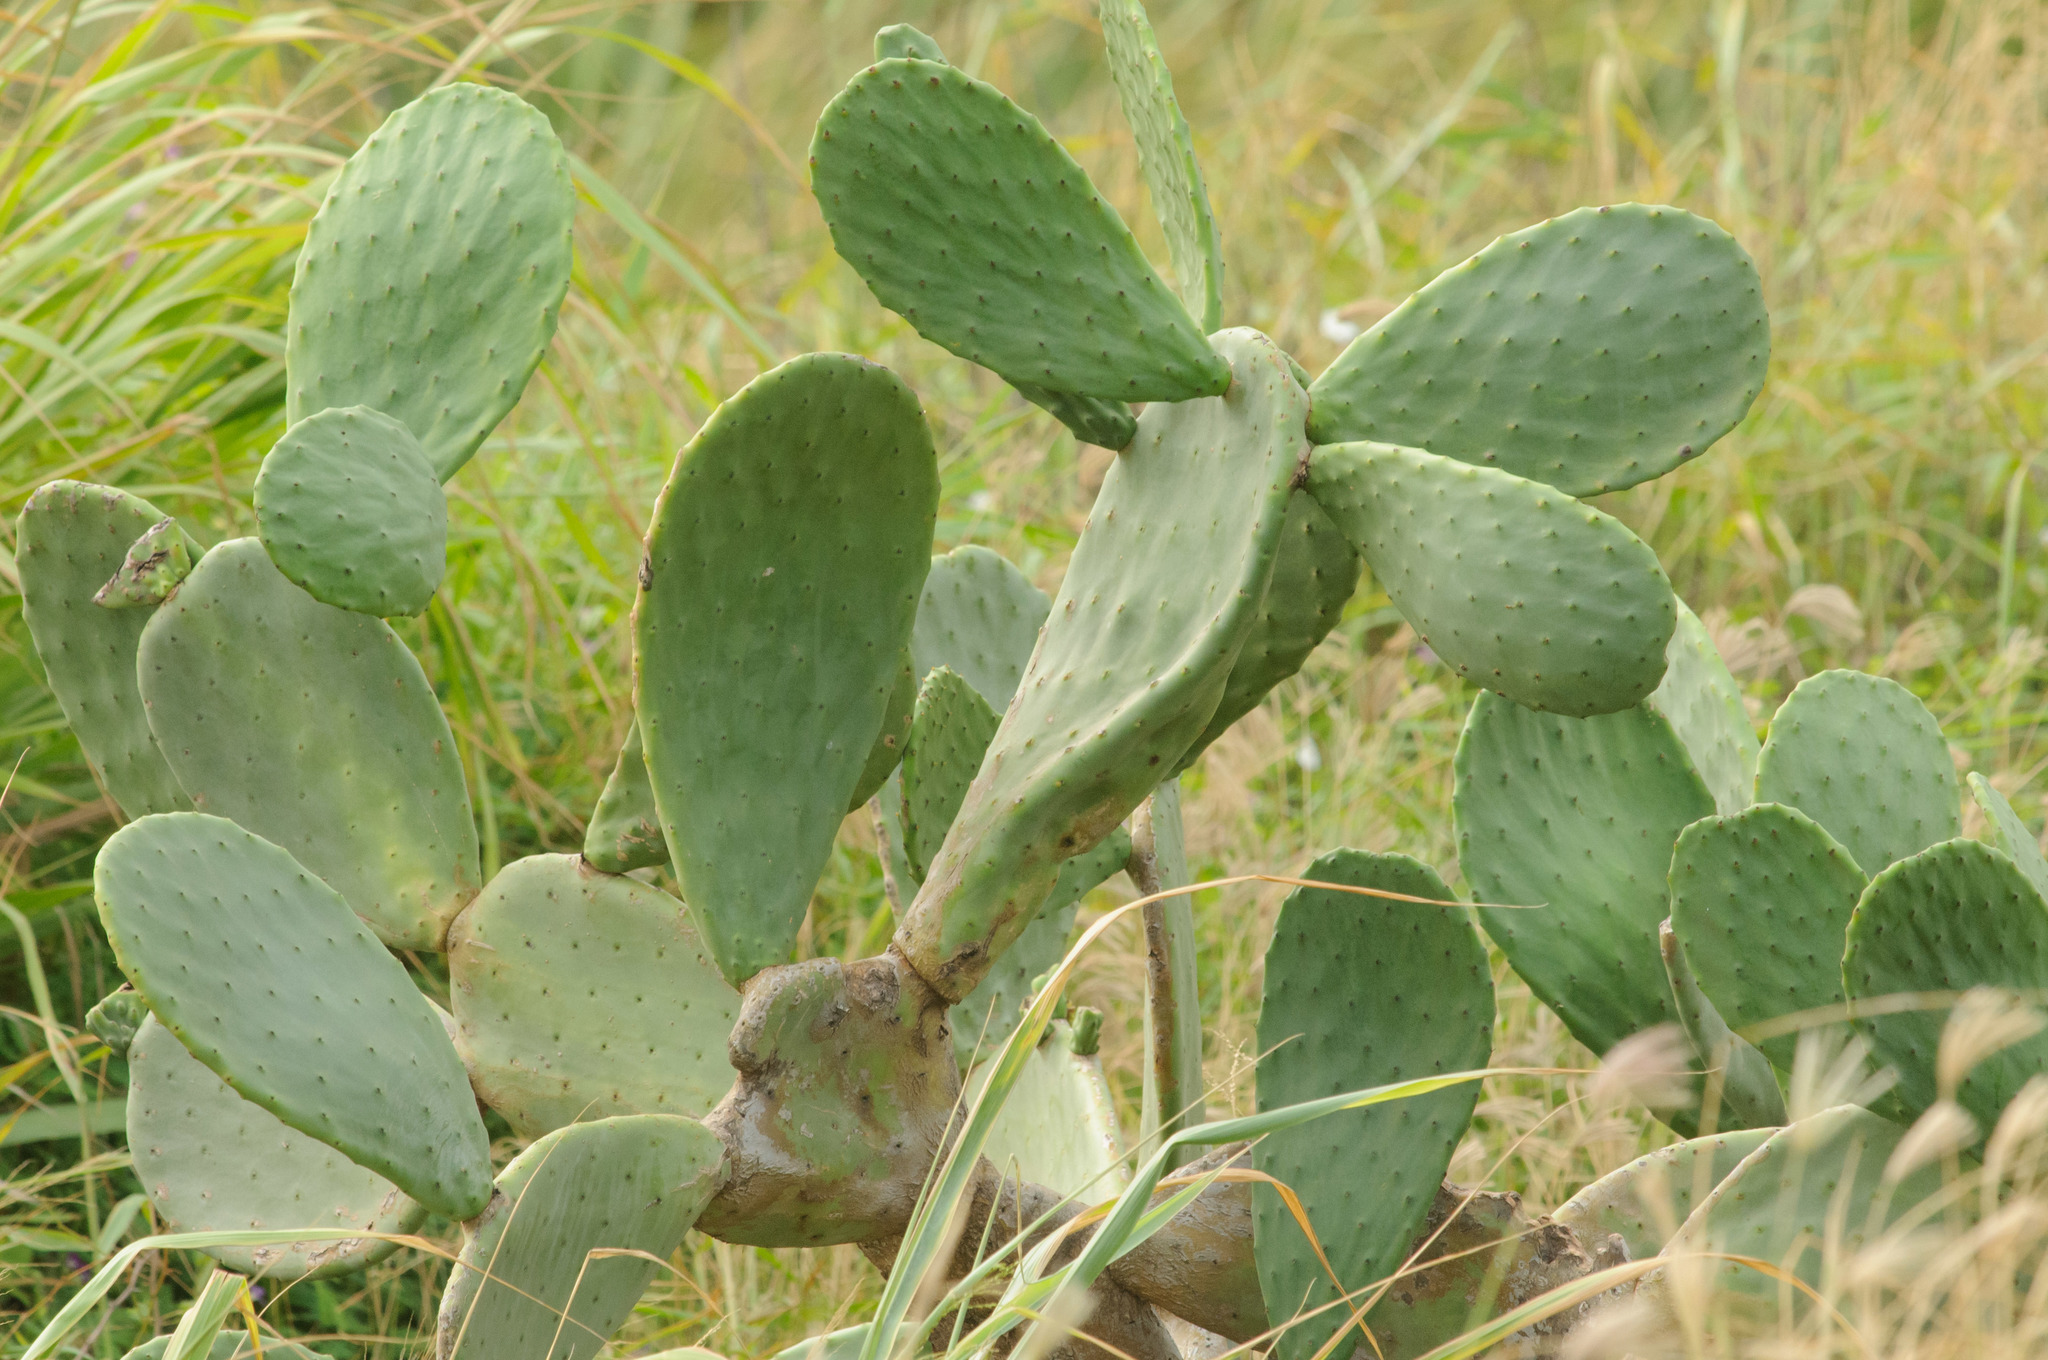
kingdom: Plantae
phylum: Tracheophyta
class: Magnoliopsida
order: Caryophyllales
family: Cactaceae
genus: Opuntia
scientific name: Opuntia ficus-indica
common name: Barbary fig
